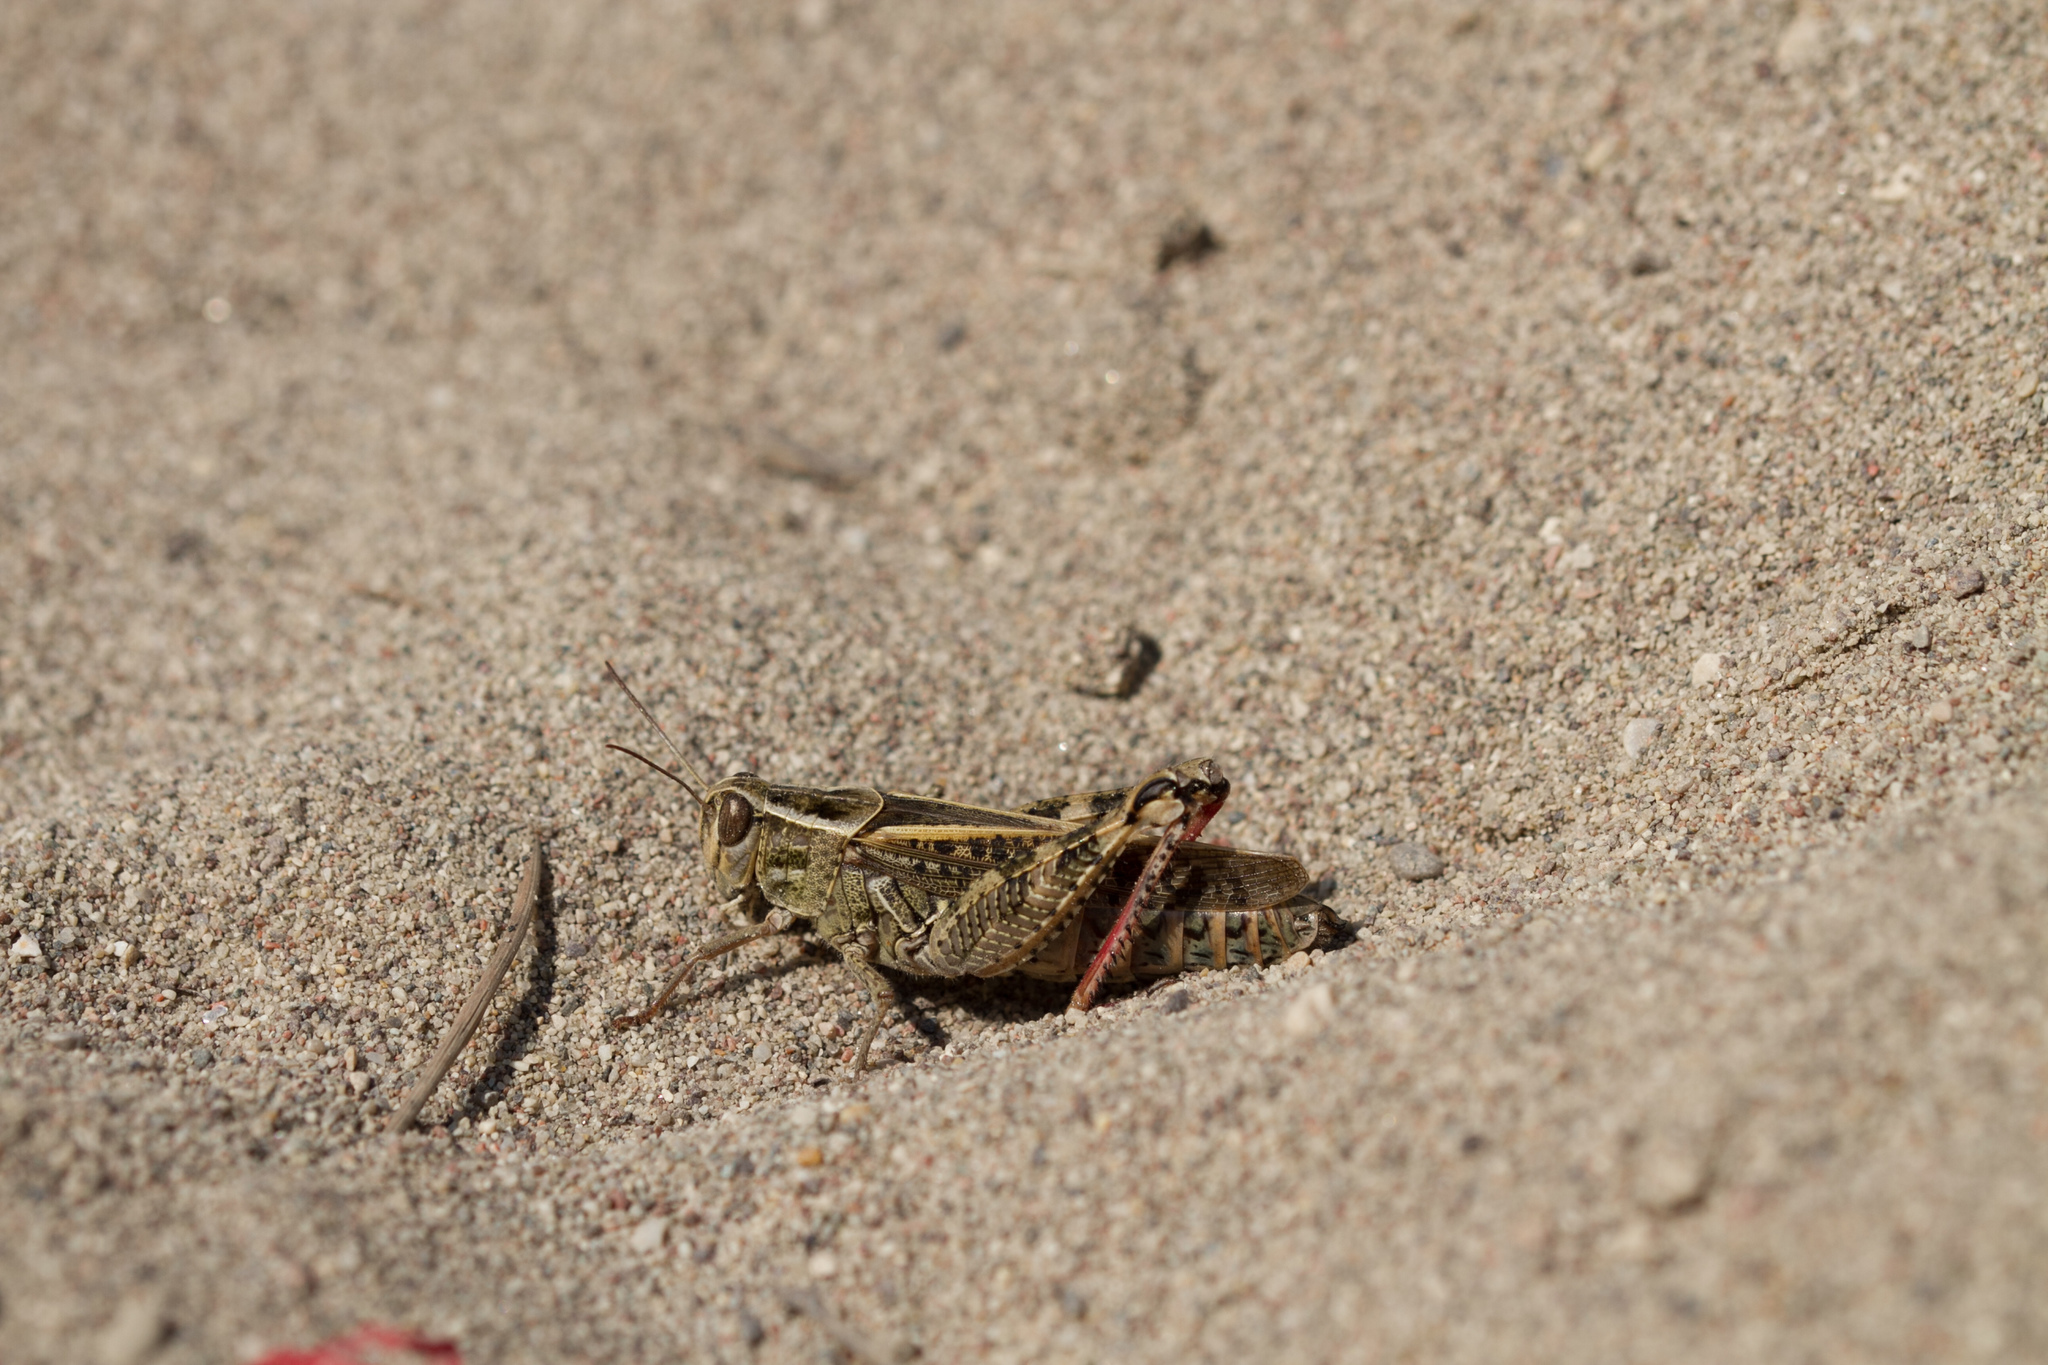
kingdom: Animalia
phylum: Arthropoda
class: Insecta
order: Orthoptera
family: Acrididae
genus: Calliptamus
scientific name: Calliptamus italicus
